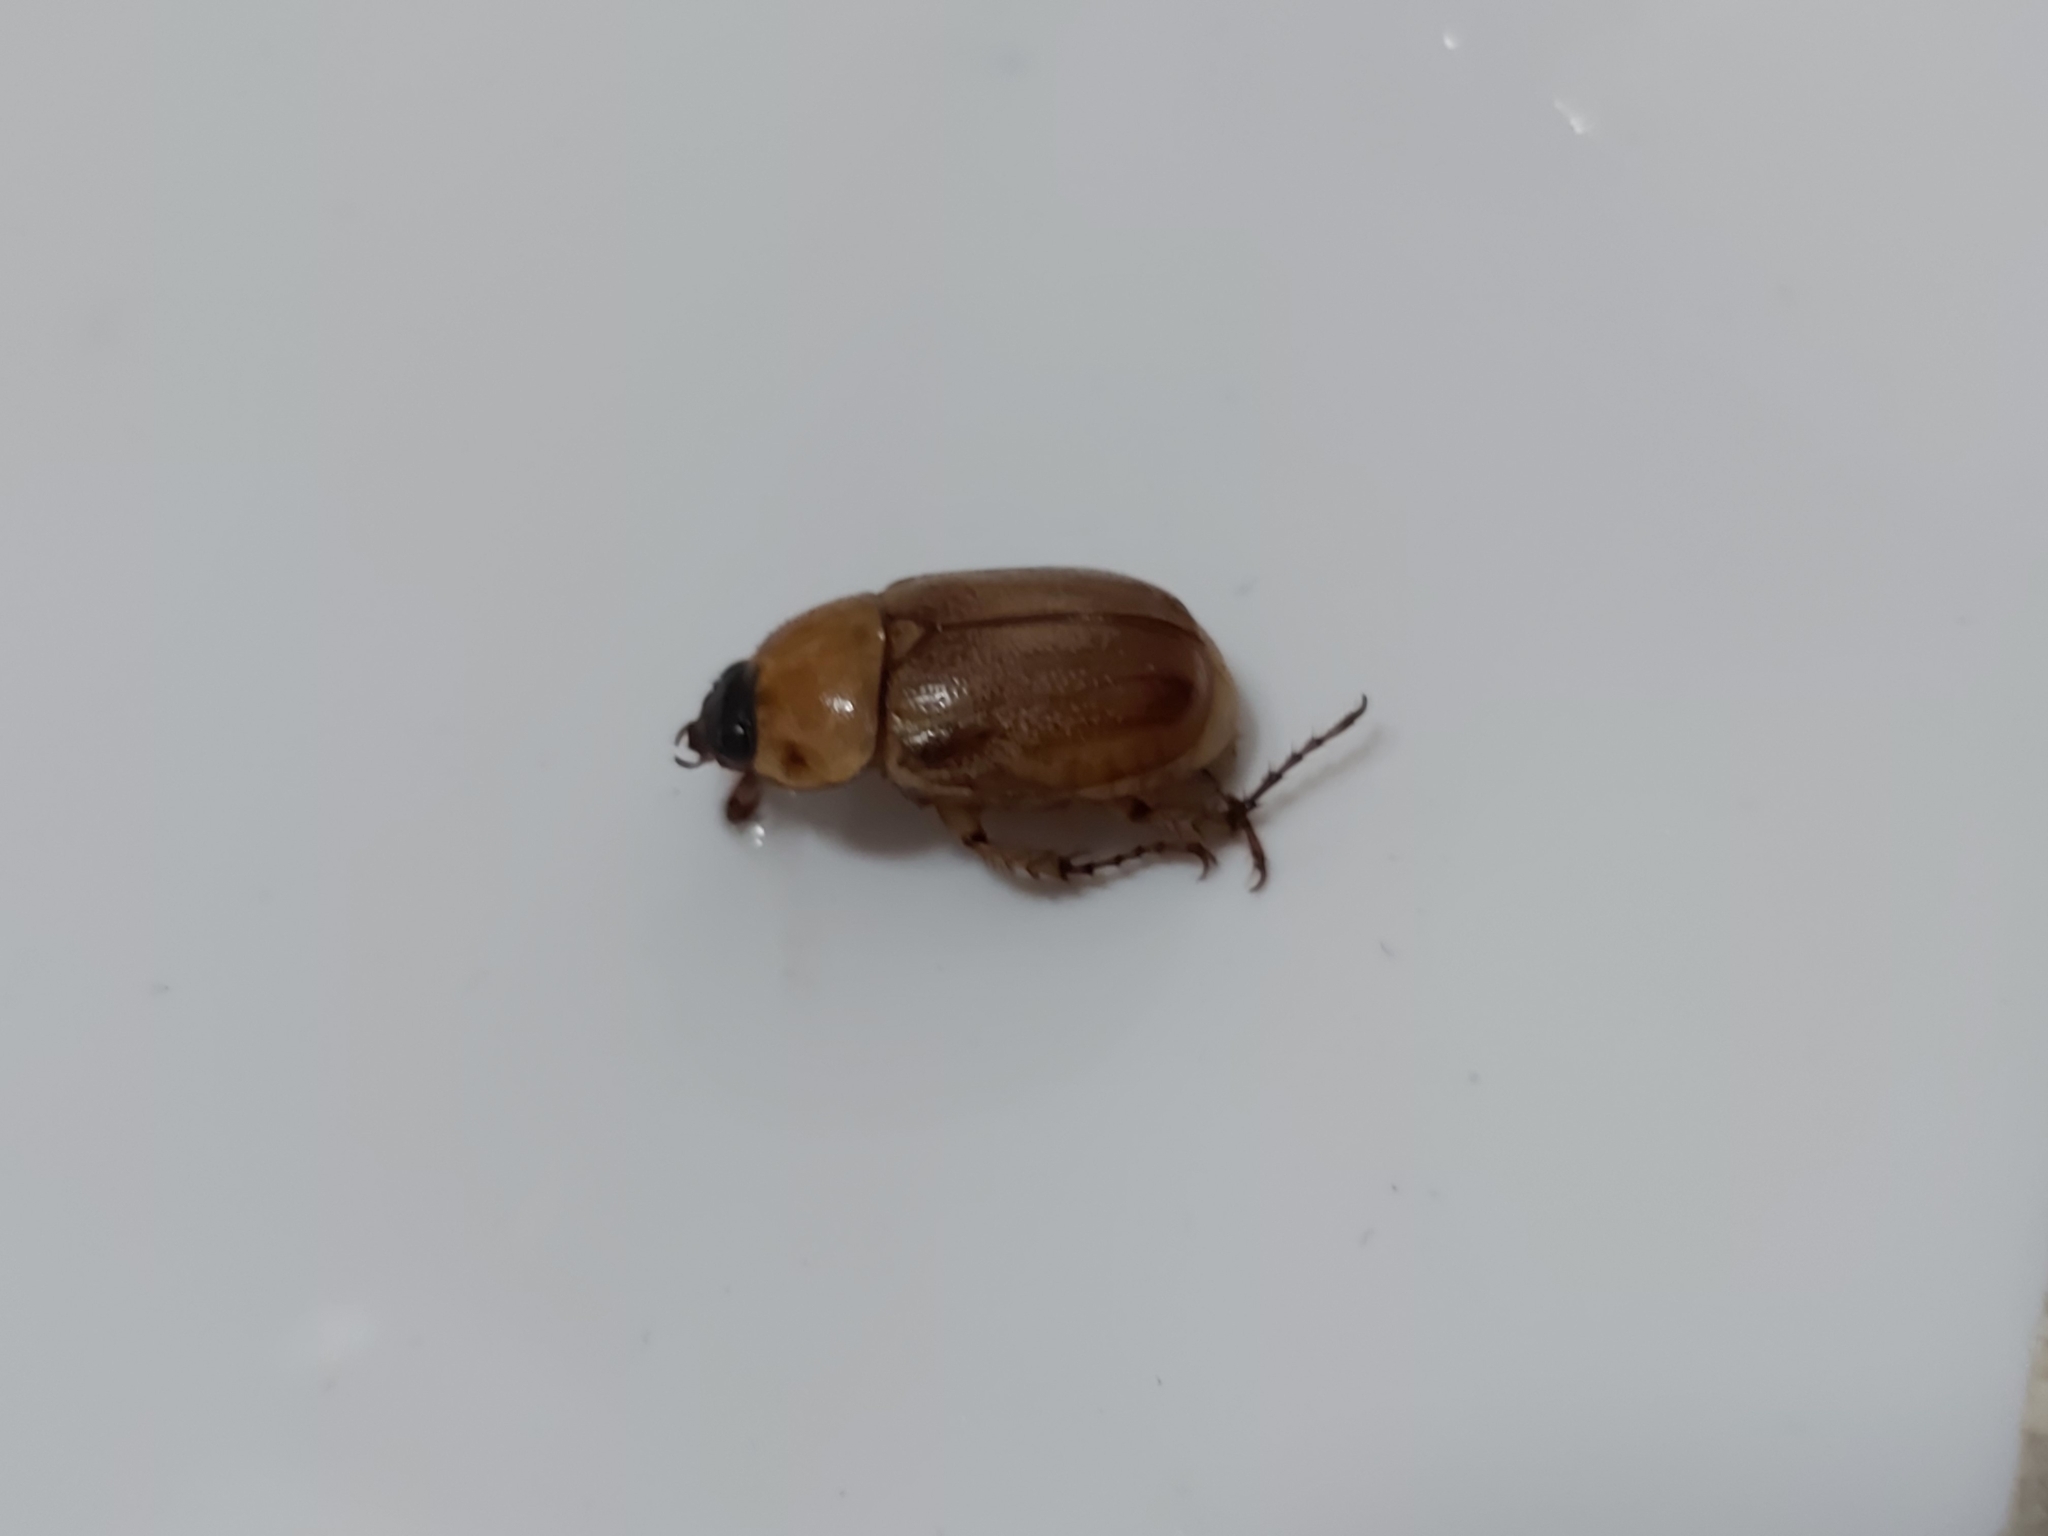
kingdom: Animalia
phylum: Arthropoda
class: Insecta
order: Coleoptera
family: Scarabaeidae
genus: Cyclocephala
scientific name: Cyclocephala signaticollis
